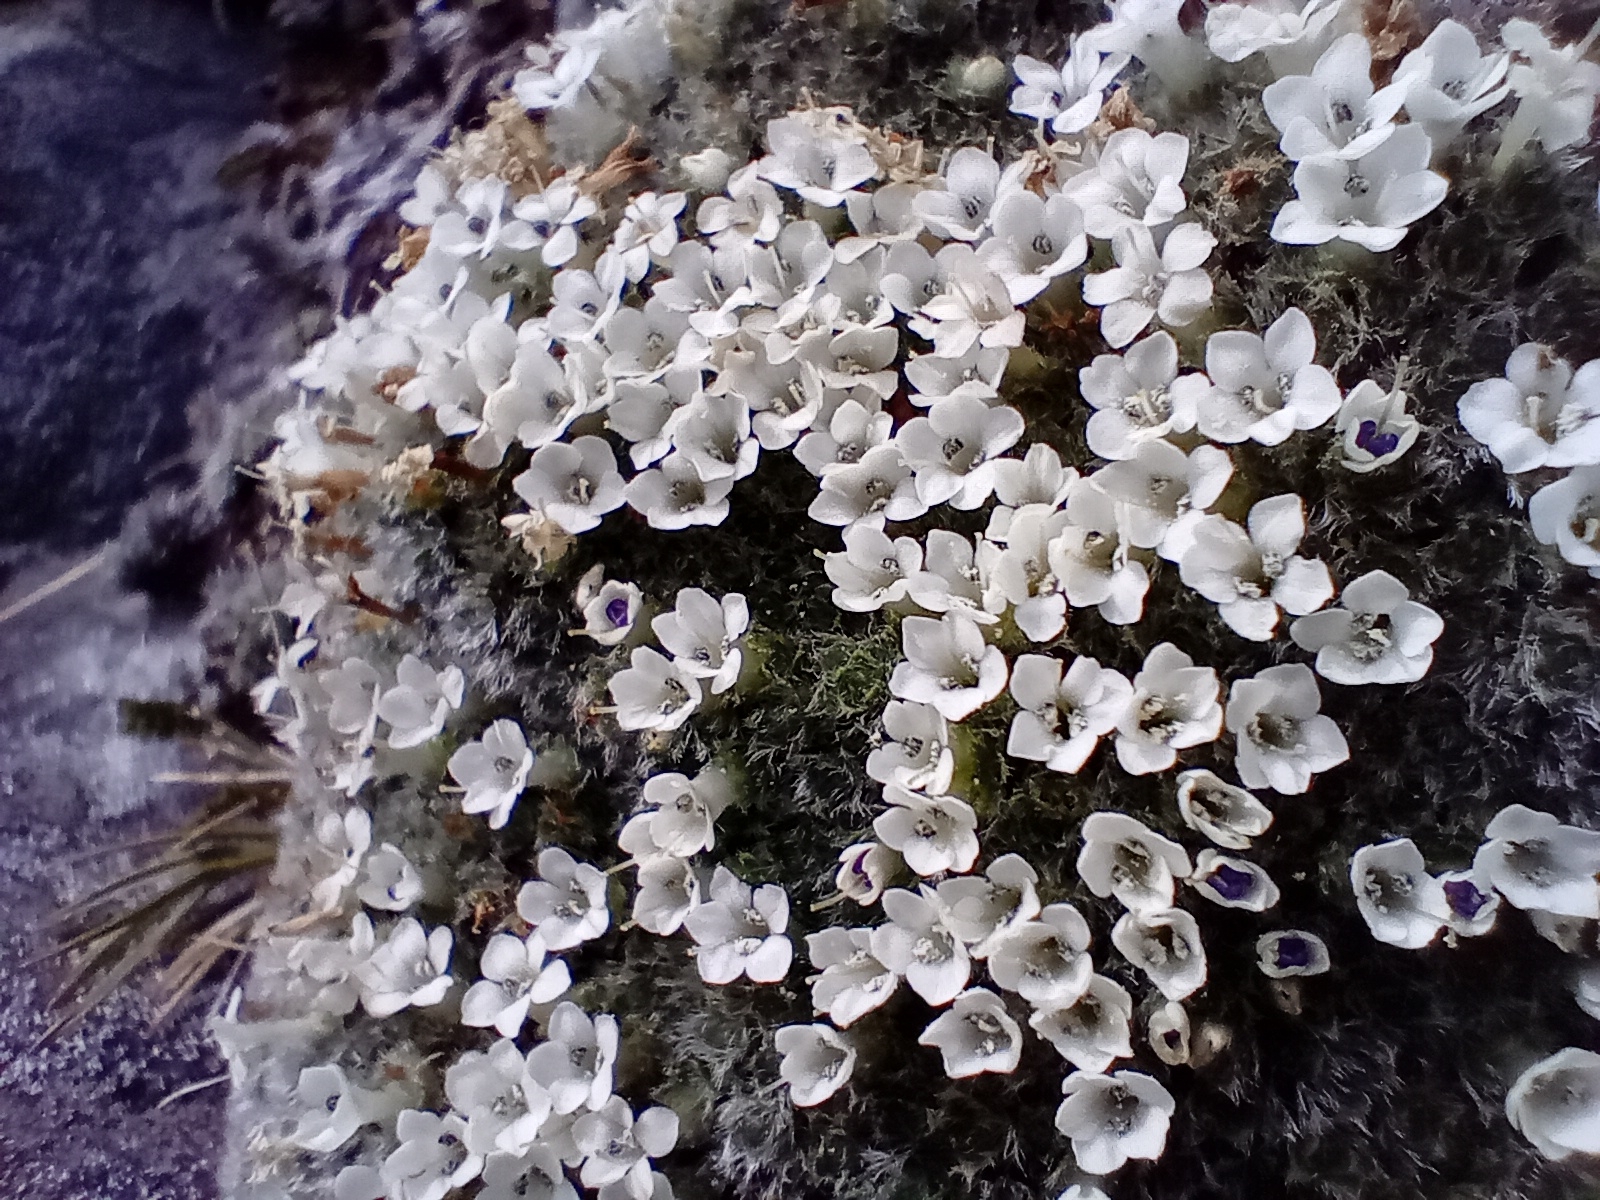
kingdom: Plantae
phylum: Tracheophyta
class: Magnoliopsida
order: Lamiales
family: Plantaginaceae
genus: Veronica
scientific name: Veronica thomsonii
